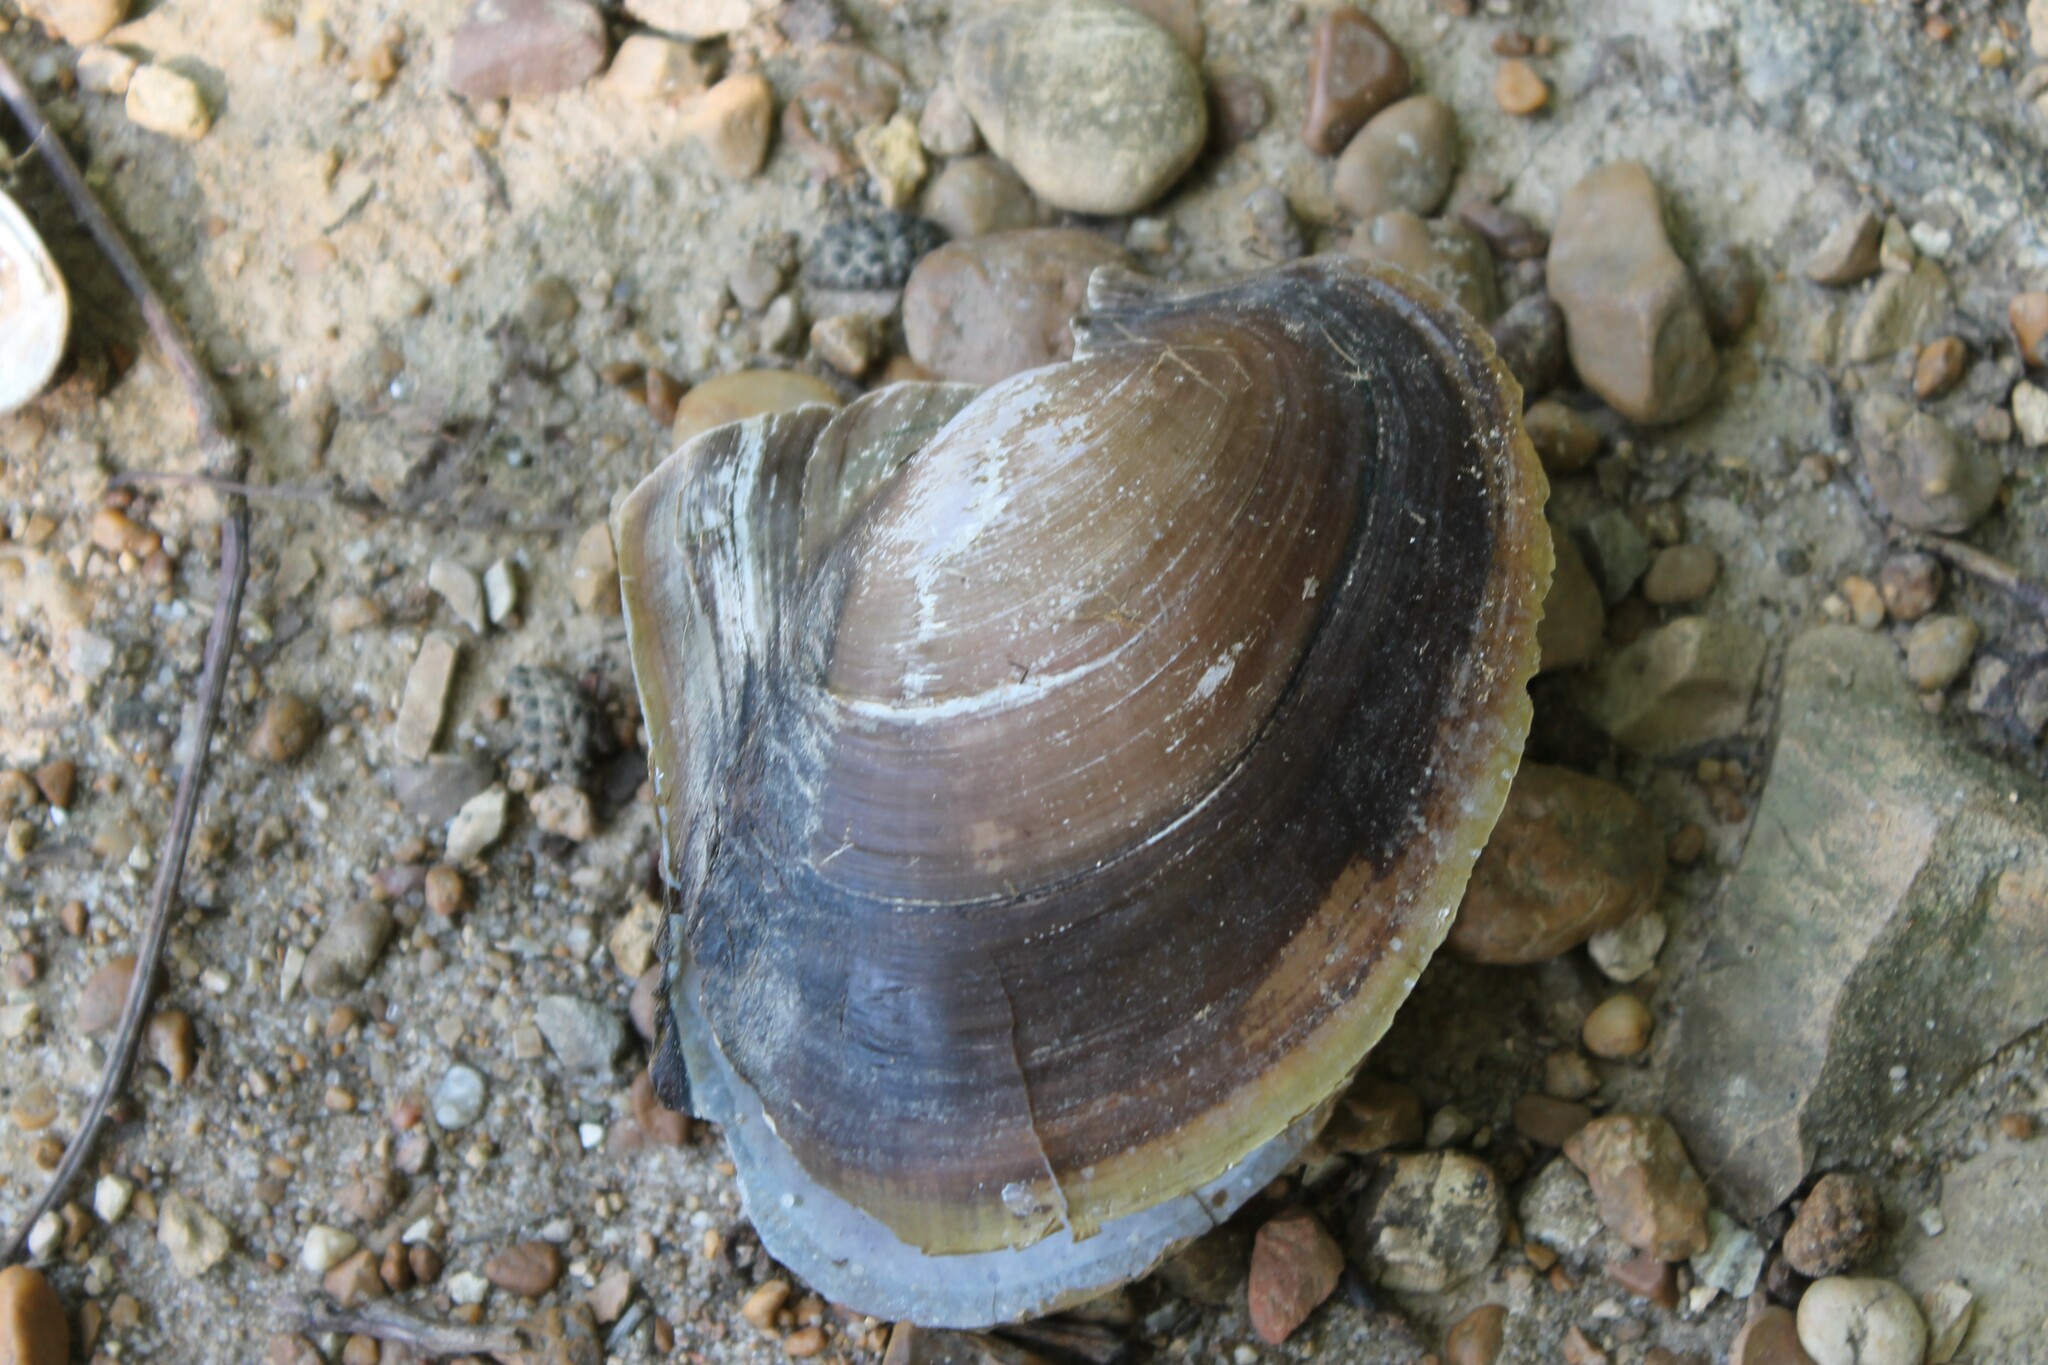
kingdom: Animalia
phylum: Mollusca
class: Bivalvia
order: Unionida
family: Unionidae
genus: Potamilus
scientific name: Potamilus alatus
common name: Pink heelsplitter
